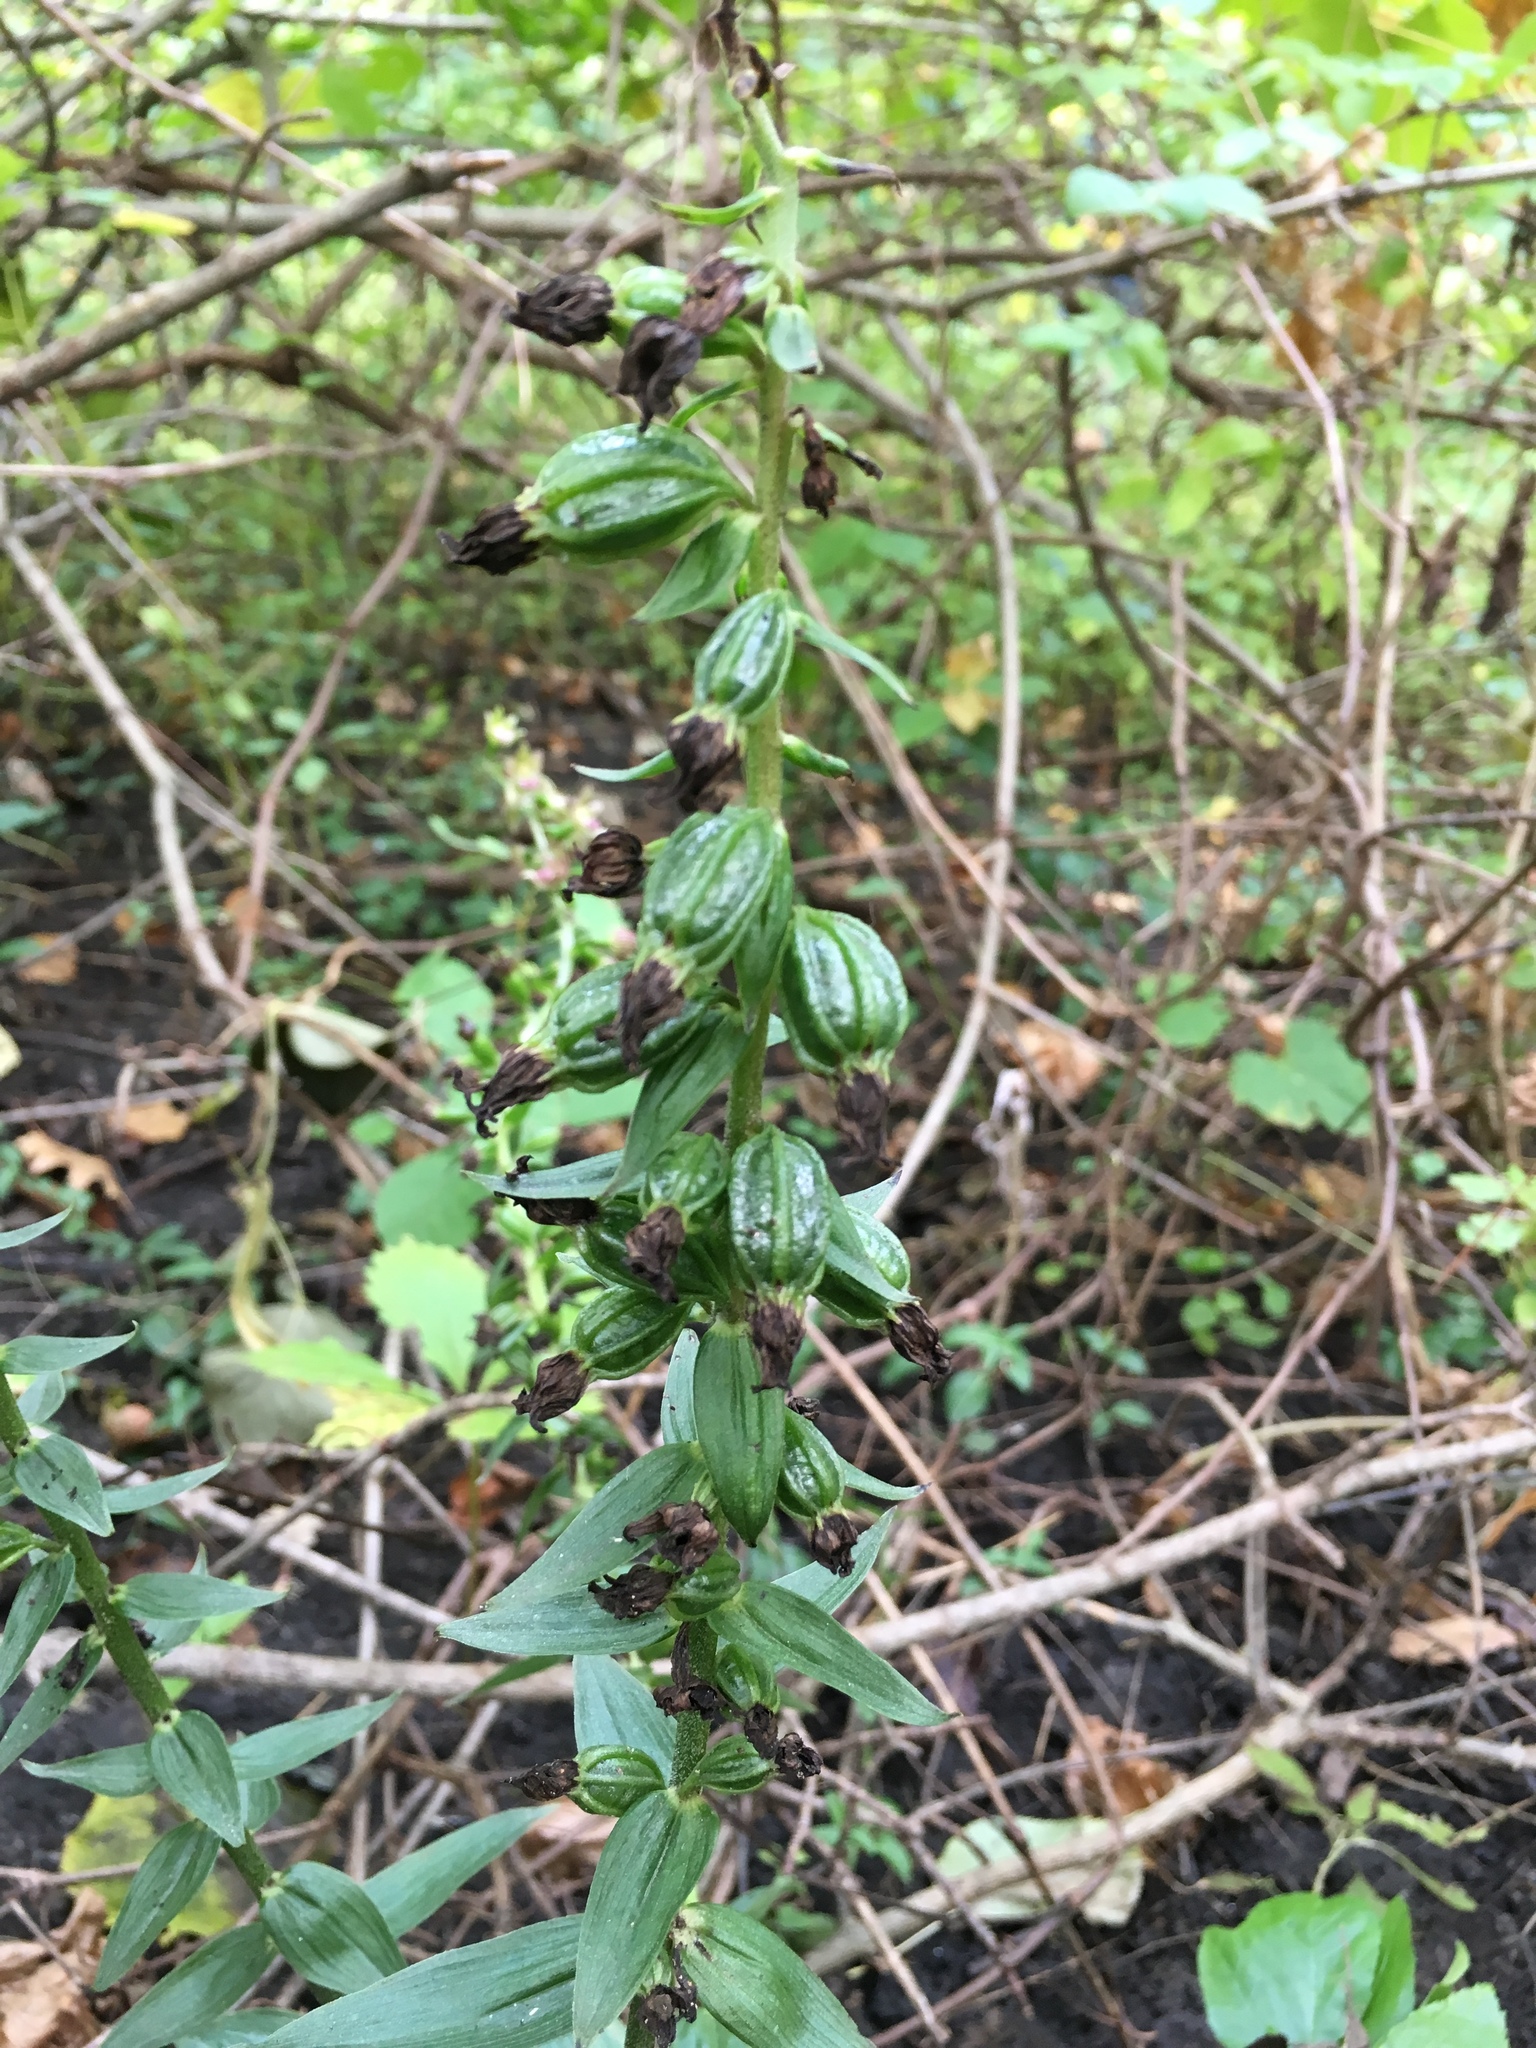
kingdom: Plantae
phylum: Tracheophyta
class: Liliopsida
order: Asparagales
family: Orchidaceae
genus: Epipactis
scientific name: Epipactis helleborine
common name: Broad-leaved helleborine
